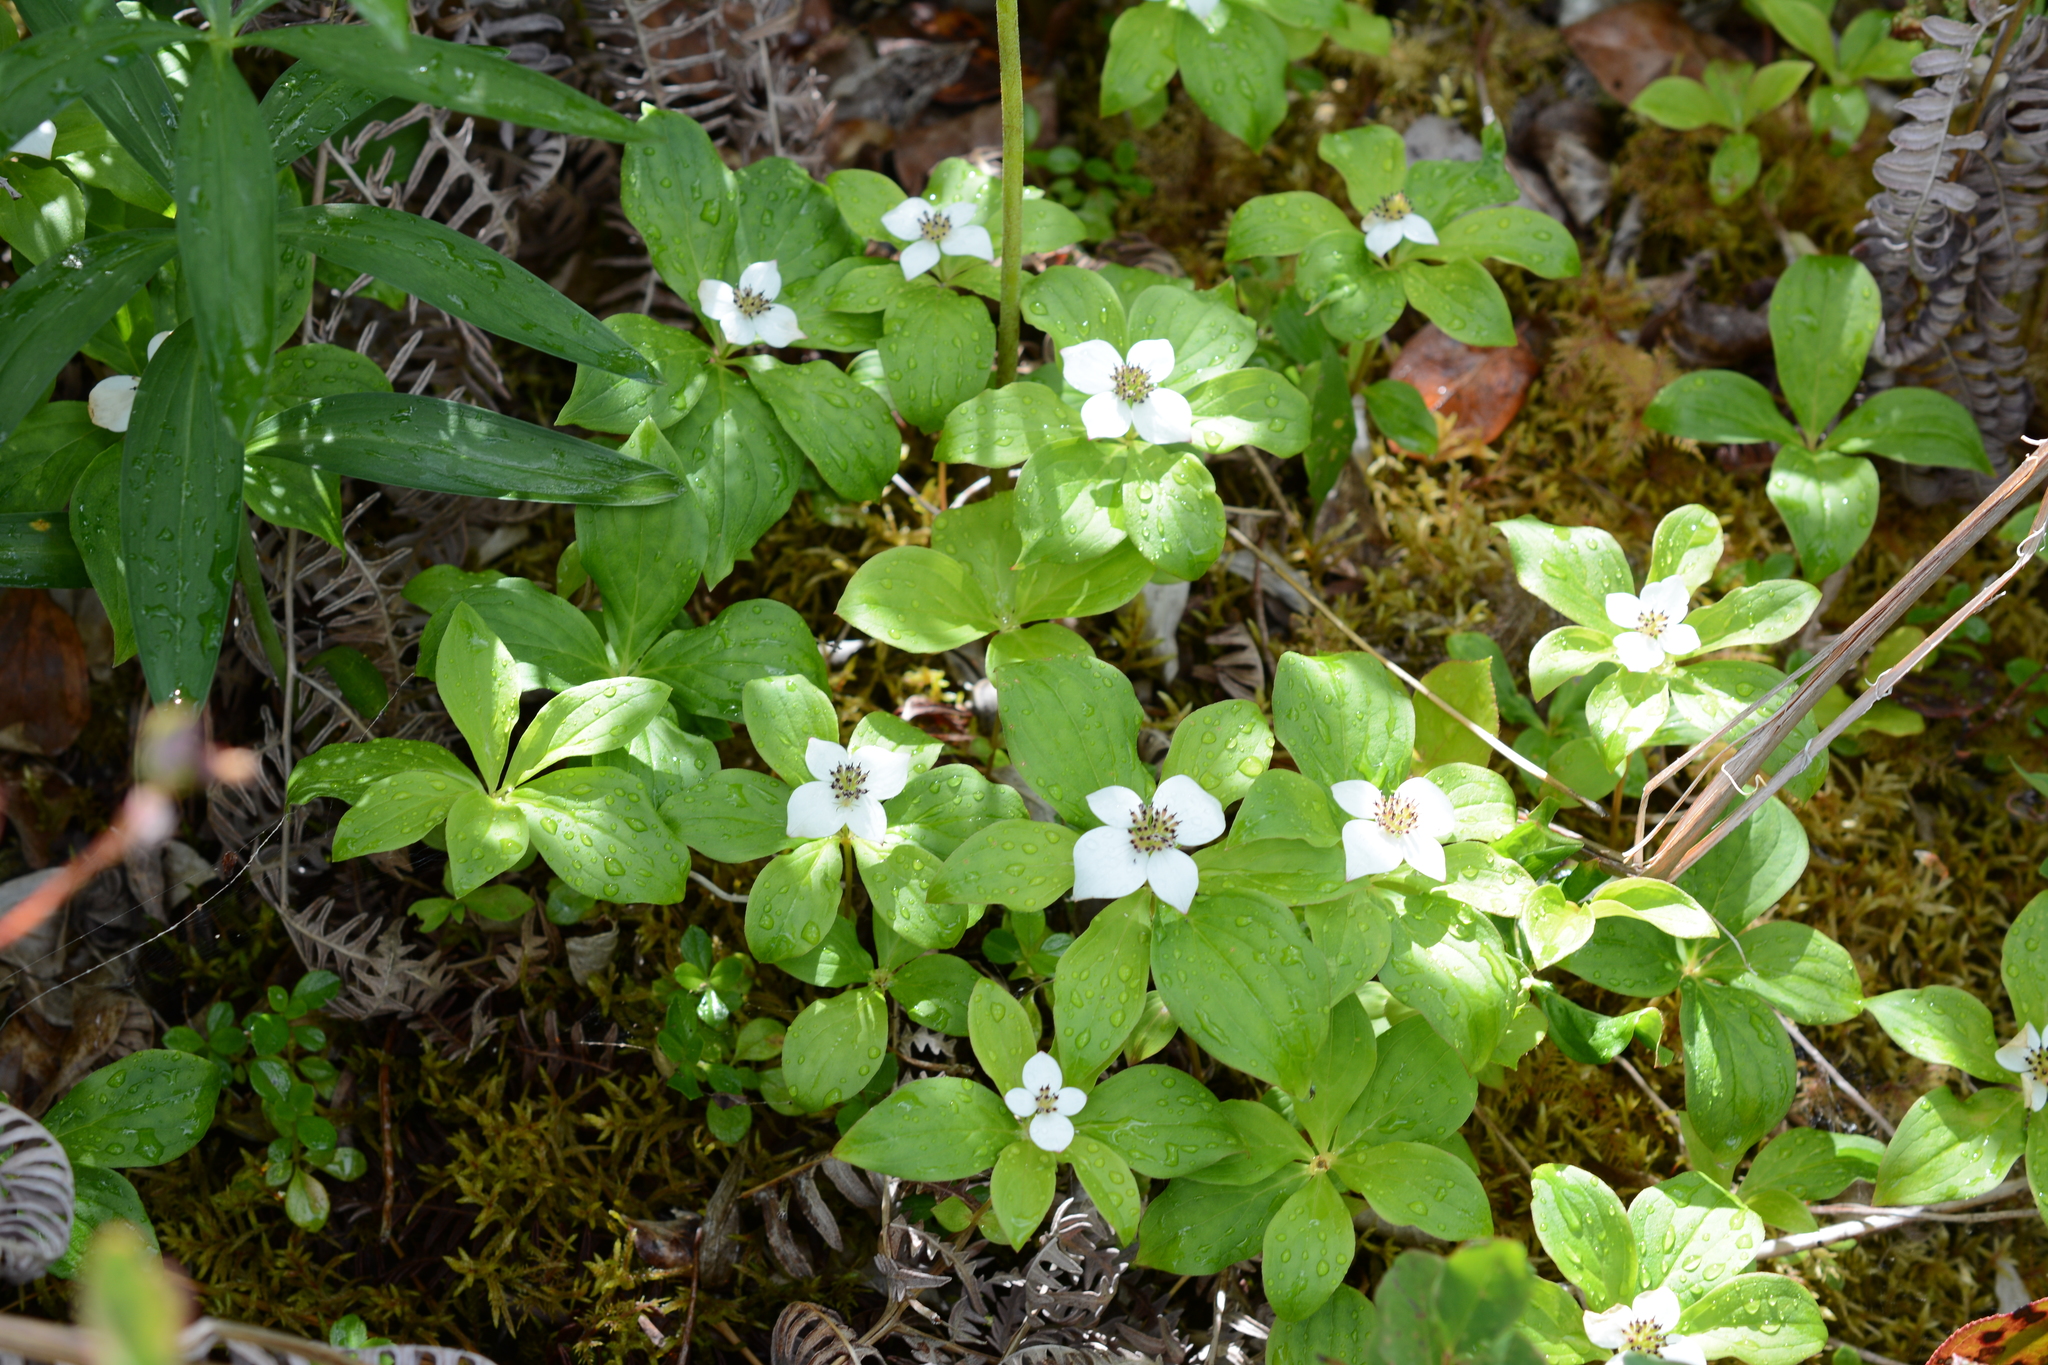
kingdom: Plantae
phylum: Tracheophyta
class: Magnoliopsida
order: Cornales
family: Cornaceae
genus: Cornus
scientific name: Cornus unalaschkensis
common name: Alaska bunchberry
